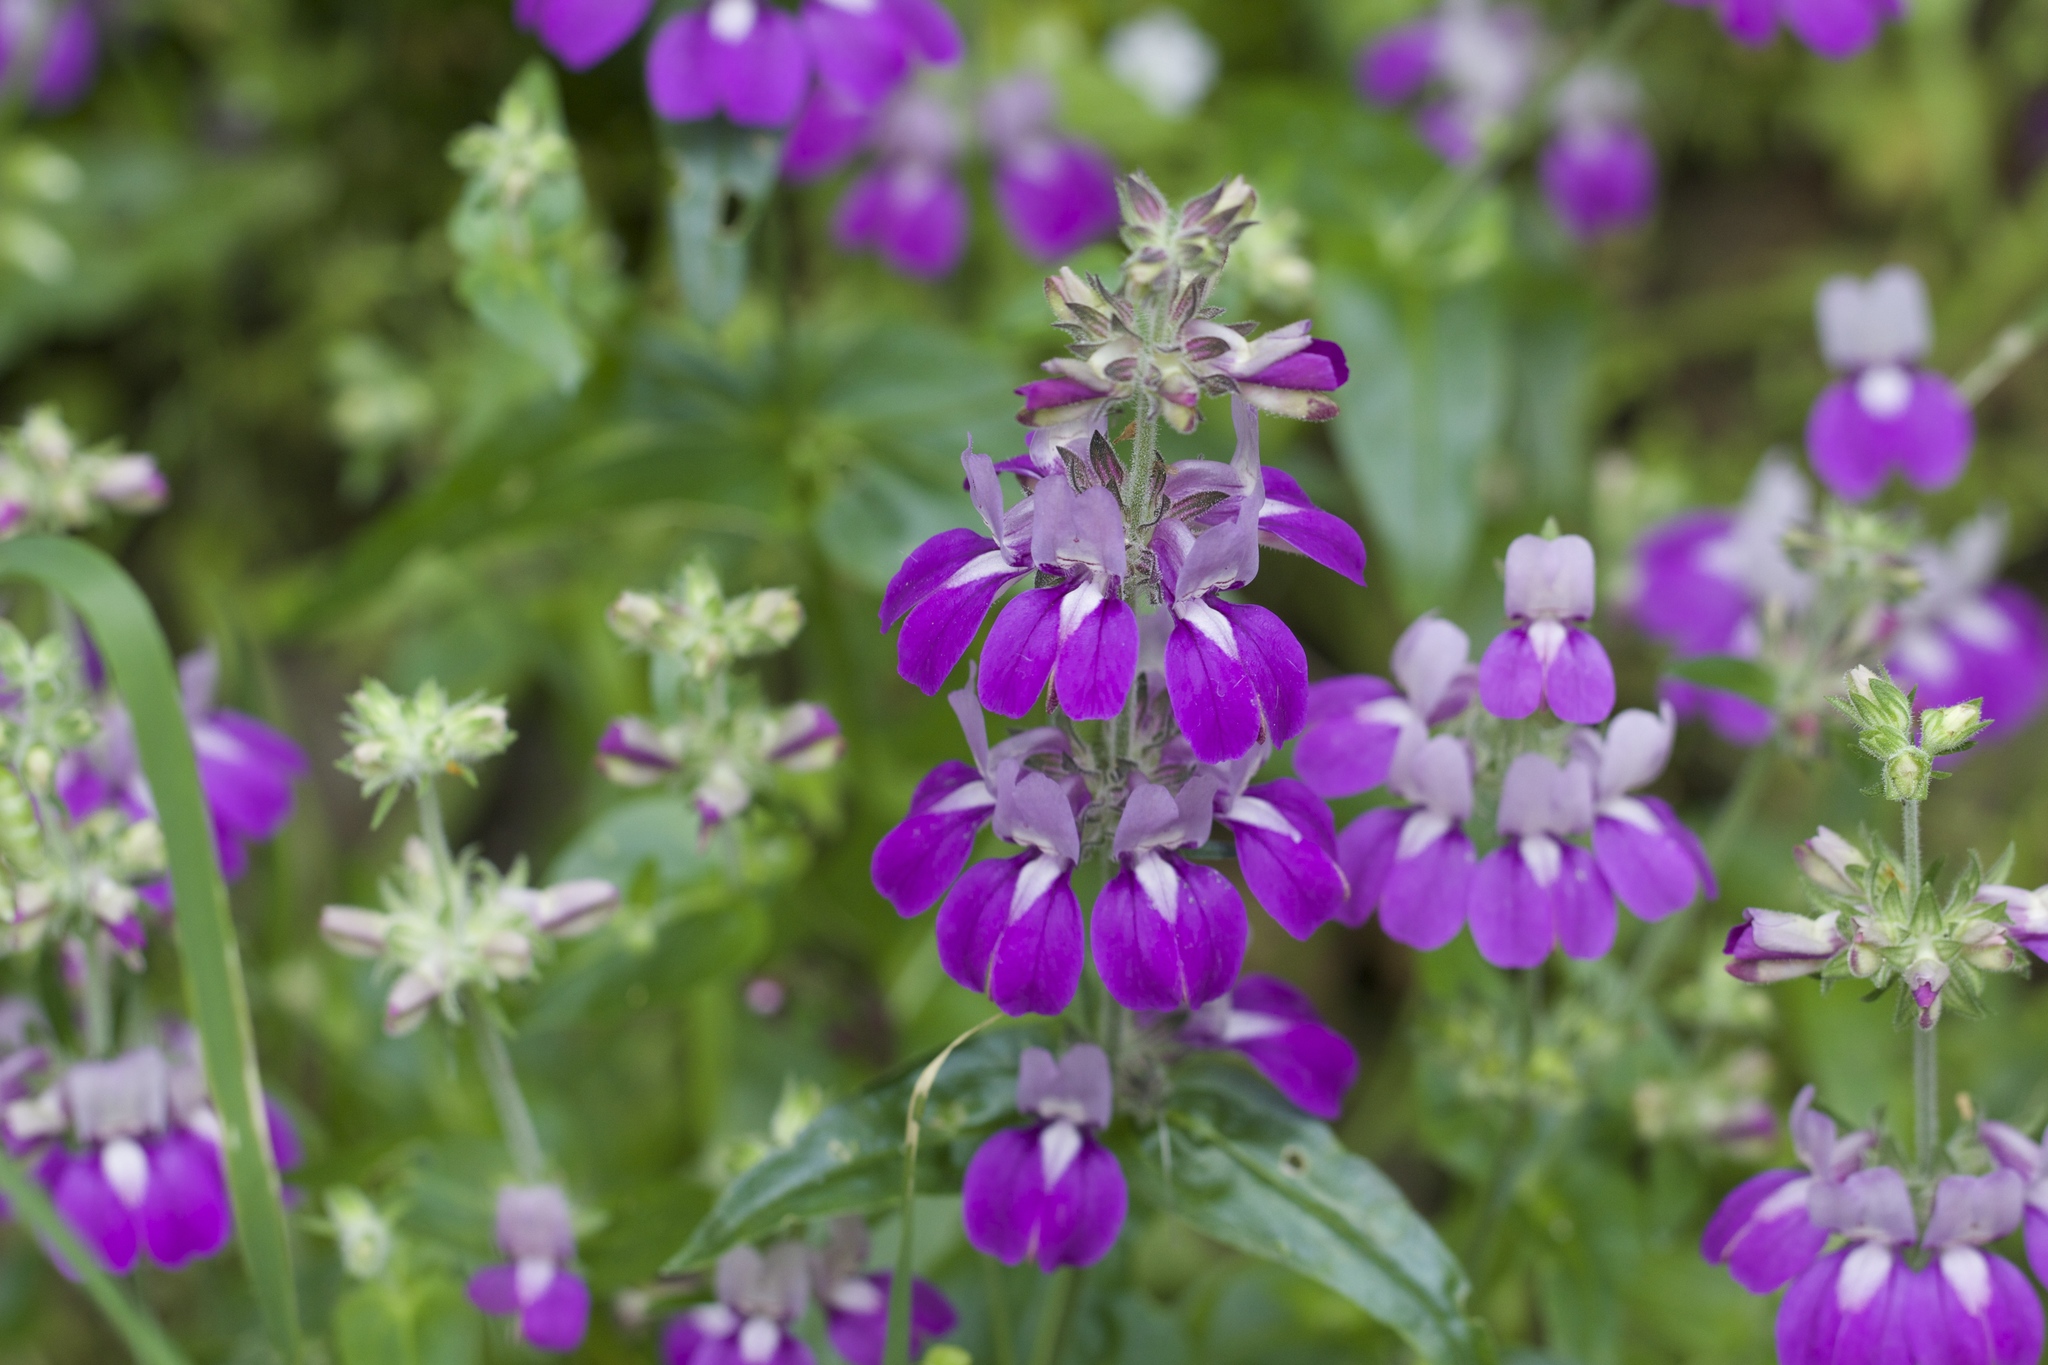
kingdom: Plantae
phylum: Tracheophyta
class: Magnoliopsida
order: Lamiales
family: Plantaginaceae
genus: Collinsia
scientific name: Collinsia heterophylla
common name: Chinese-houses
